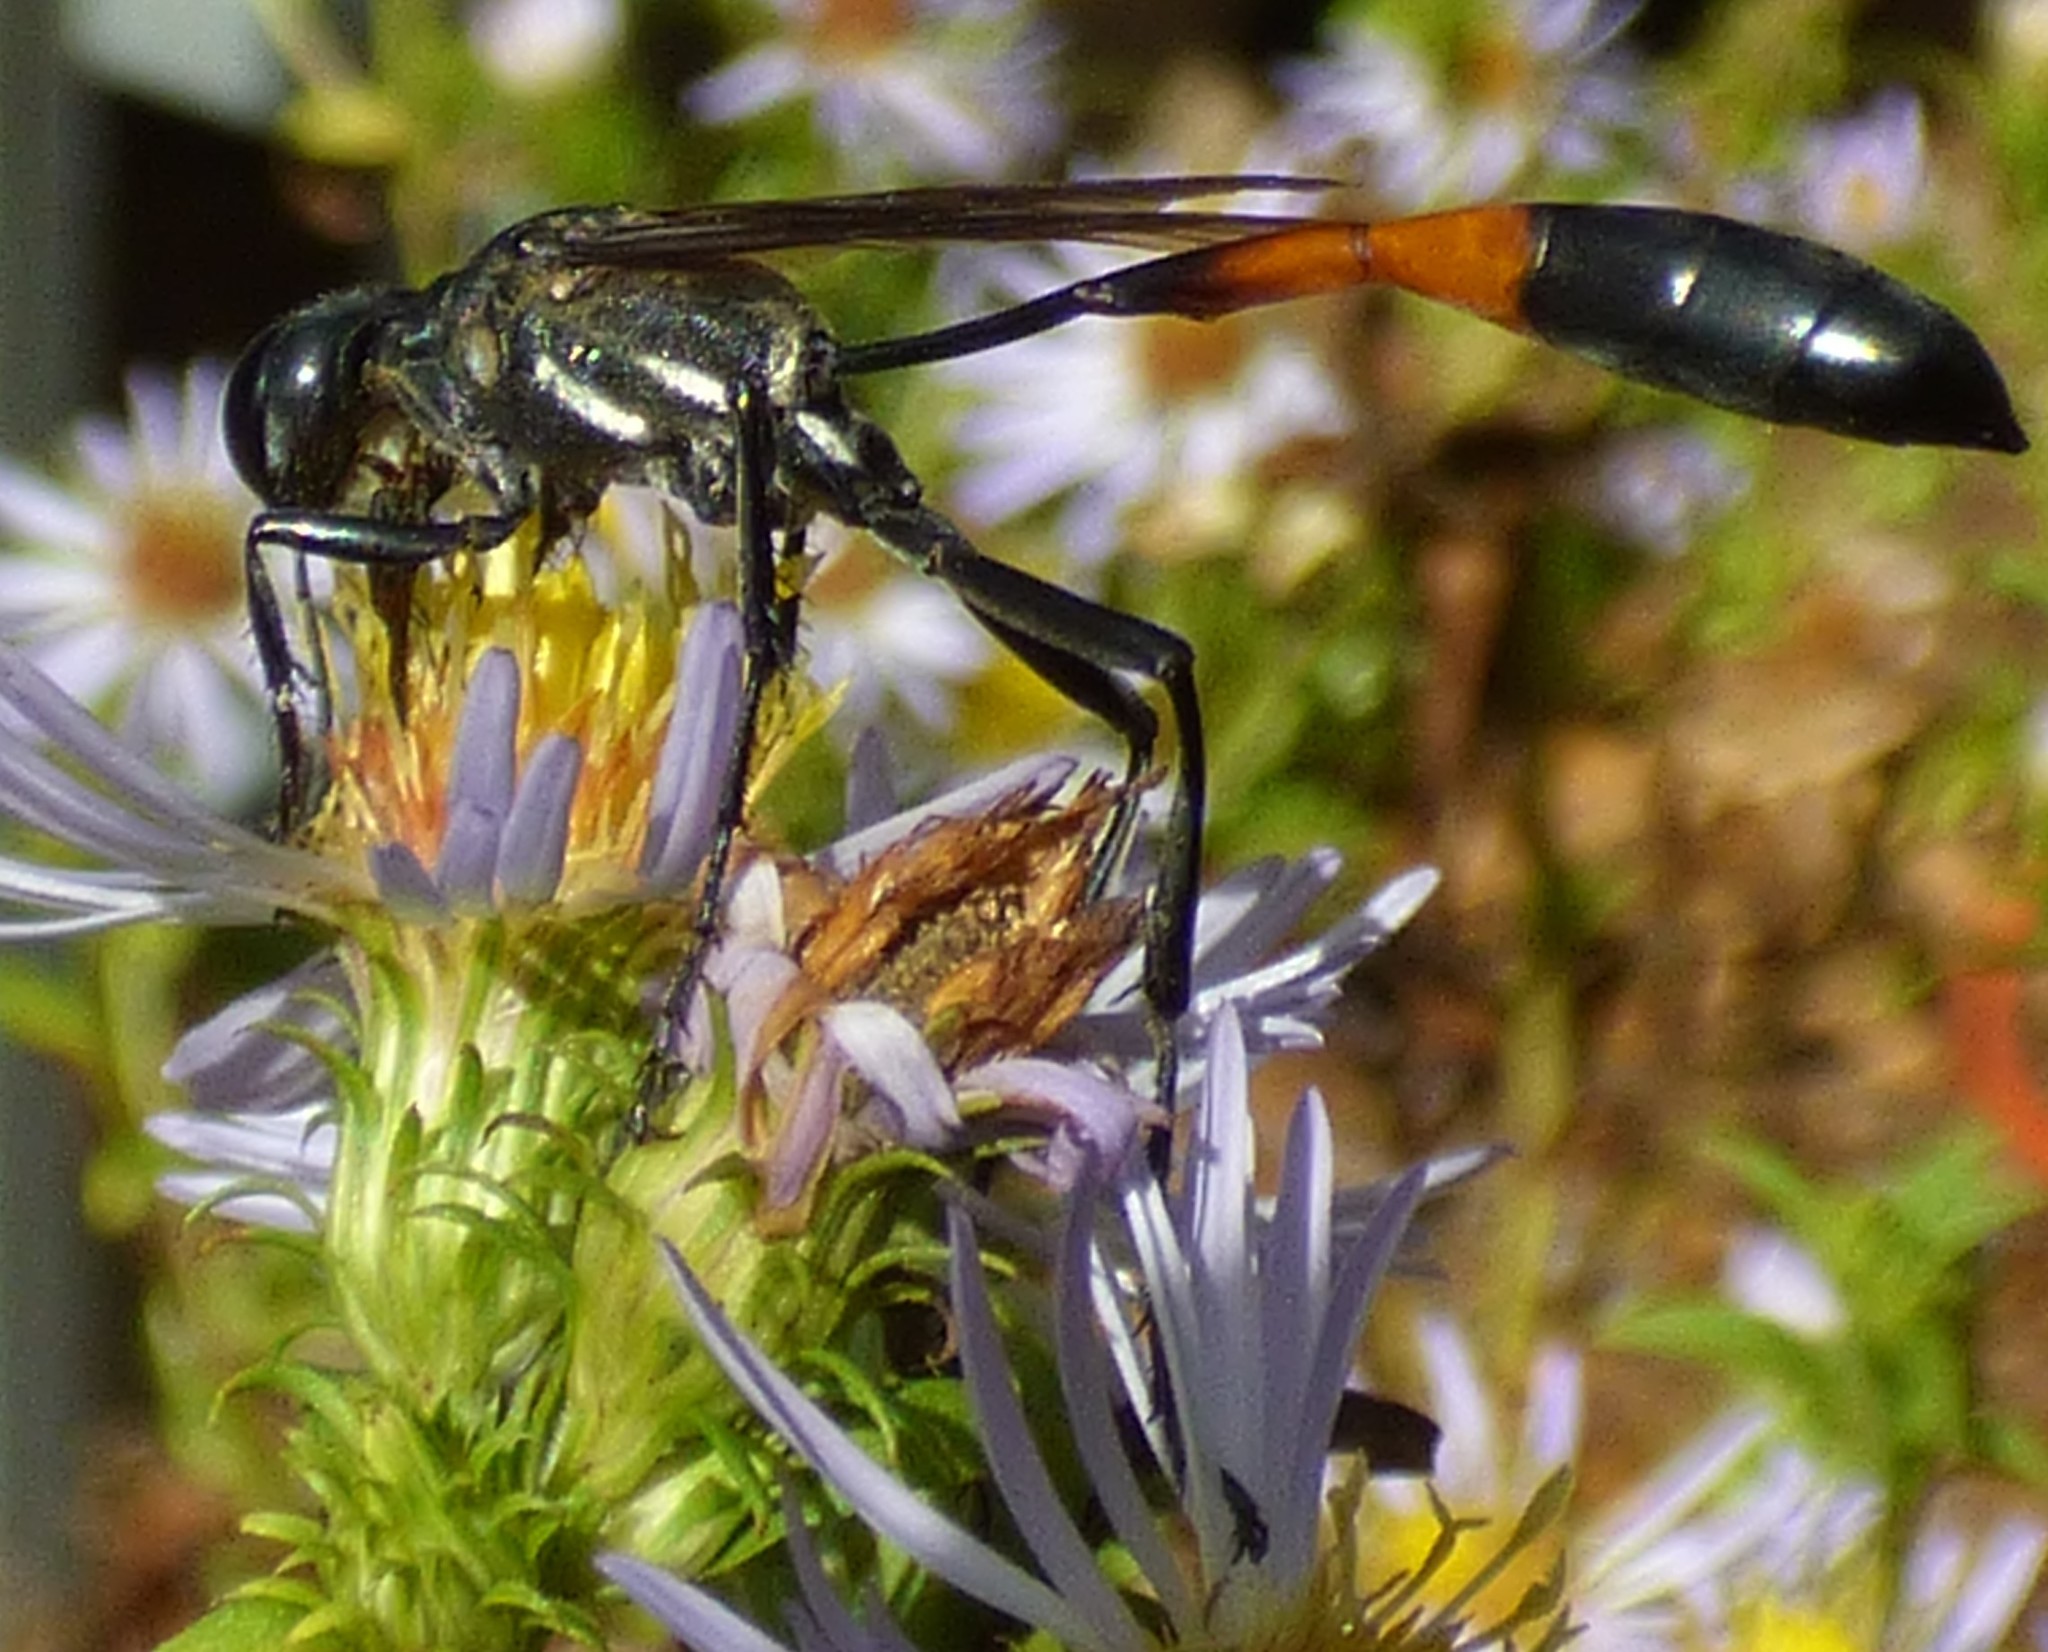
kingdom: Animalia
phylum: Arthropoda
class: Insecta
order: Hymenoptera
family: Sphecidae
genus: Ammophila
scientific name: Ammophila procera
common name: Common thread-waisted wasp
